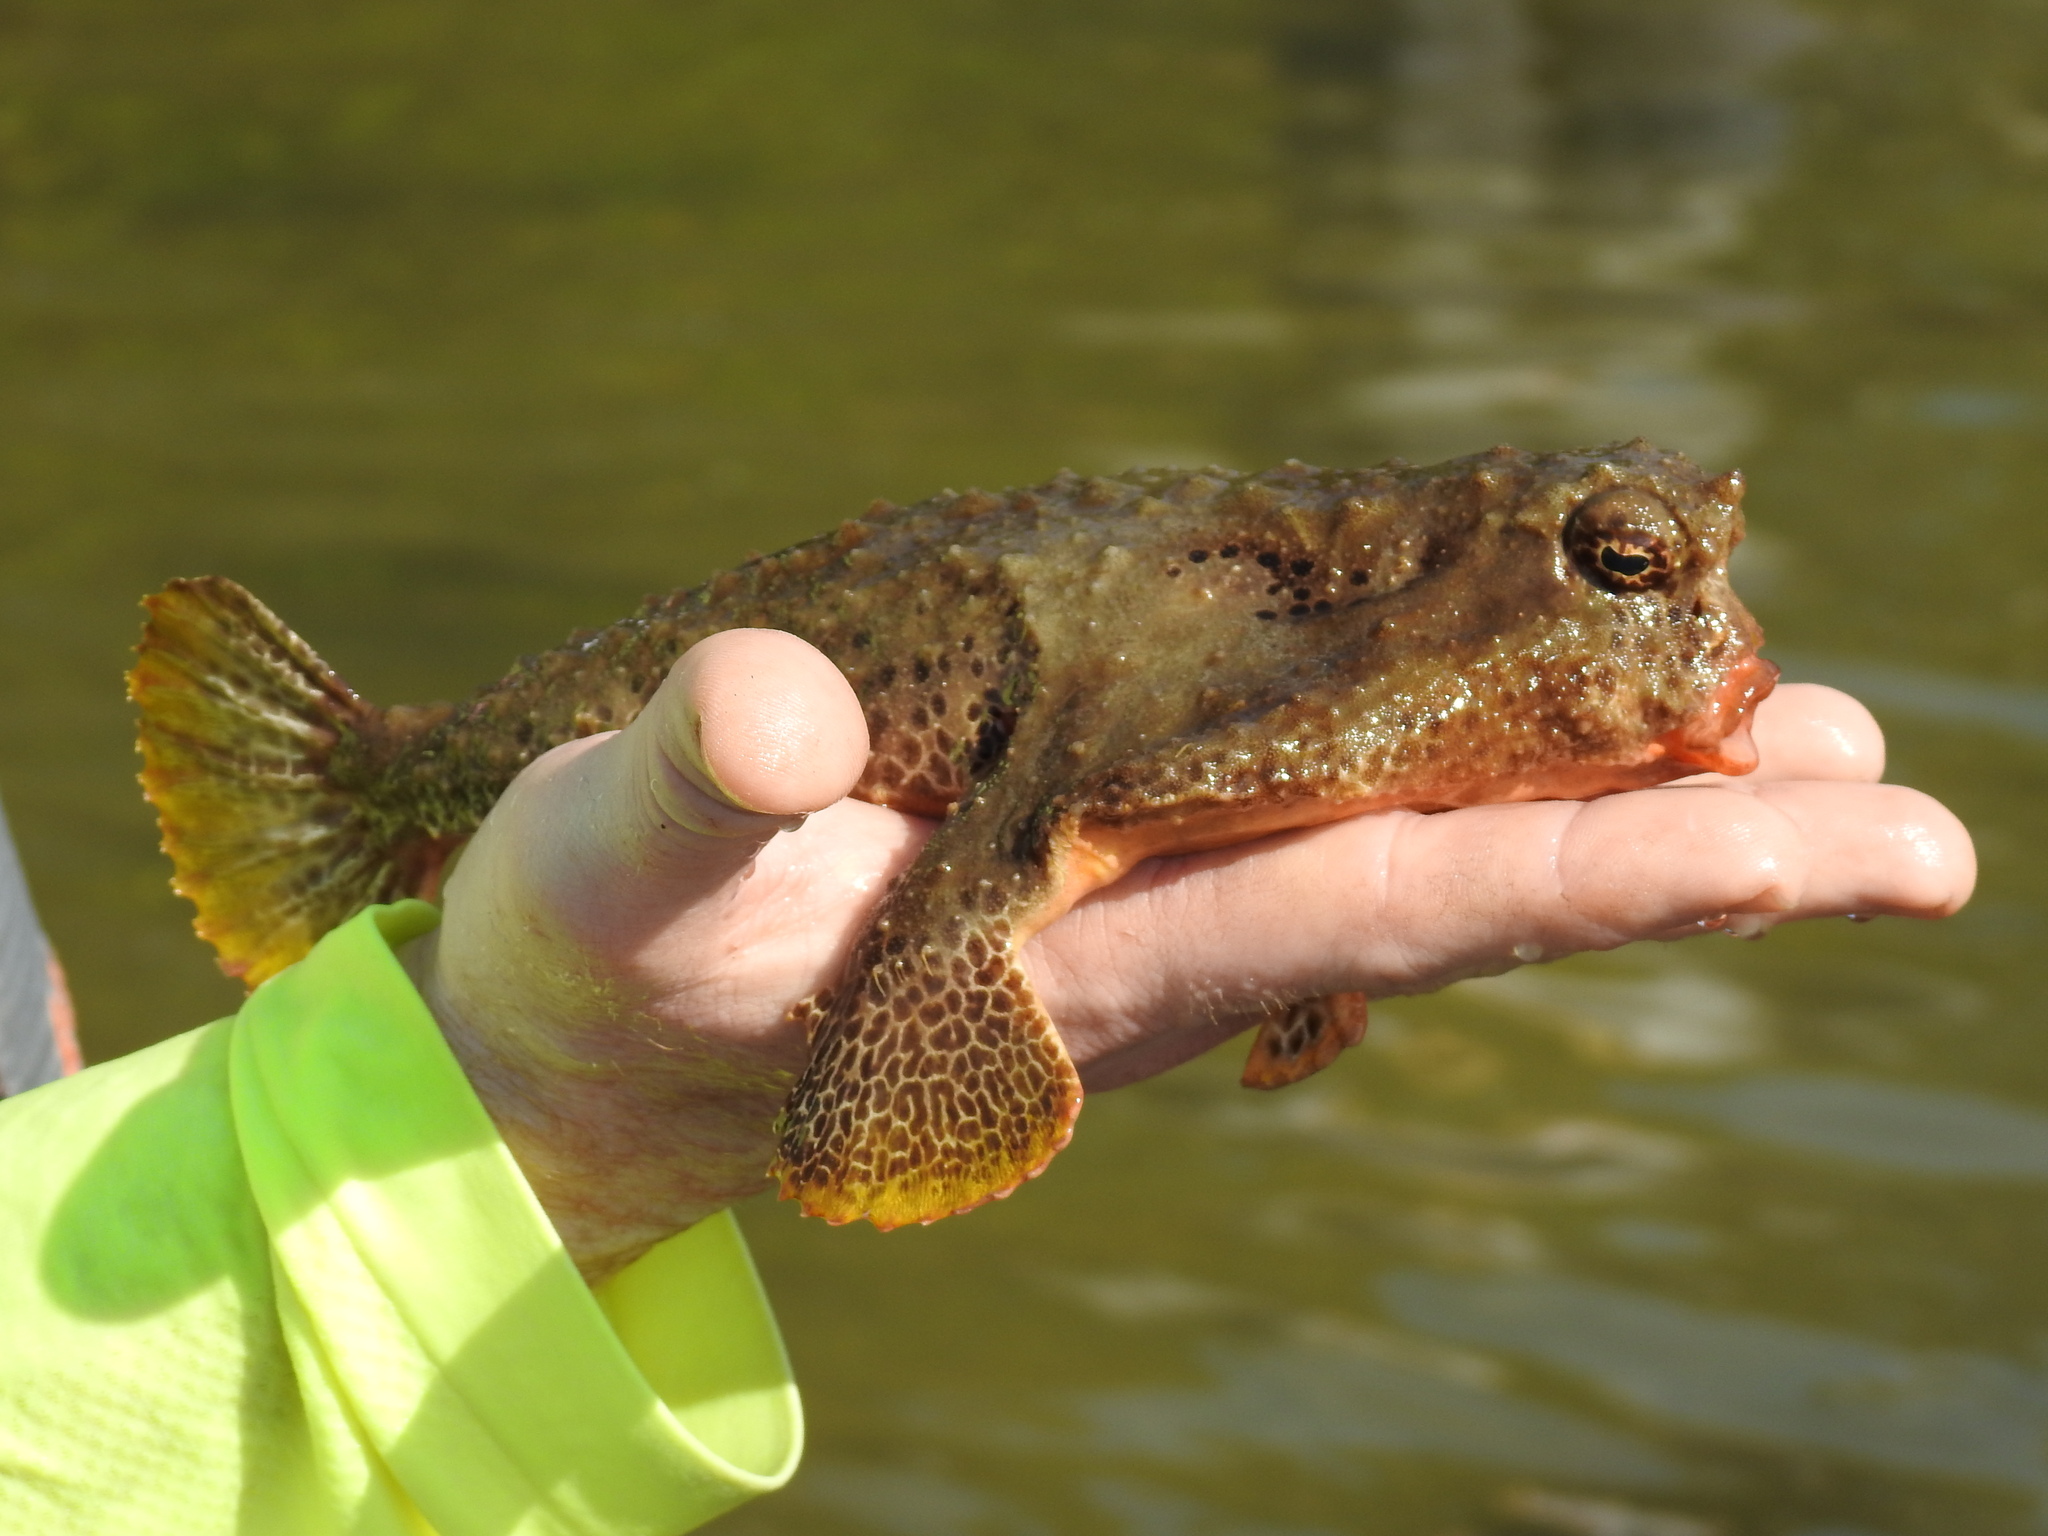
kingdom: Animalia
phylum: Chordata
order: Lophiiformes
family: Ogcocephalidae
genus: Ogcocephalus
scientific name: Ogcocephalus cubifrons
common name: Polka-dot batfish
